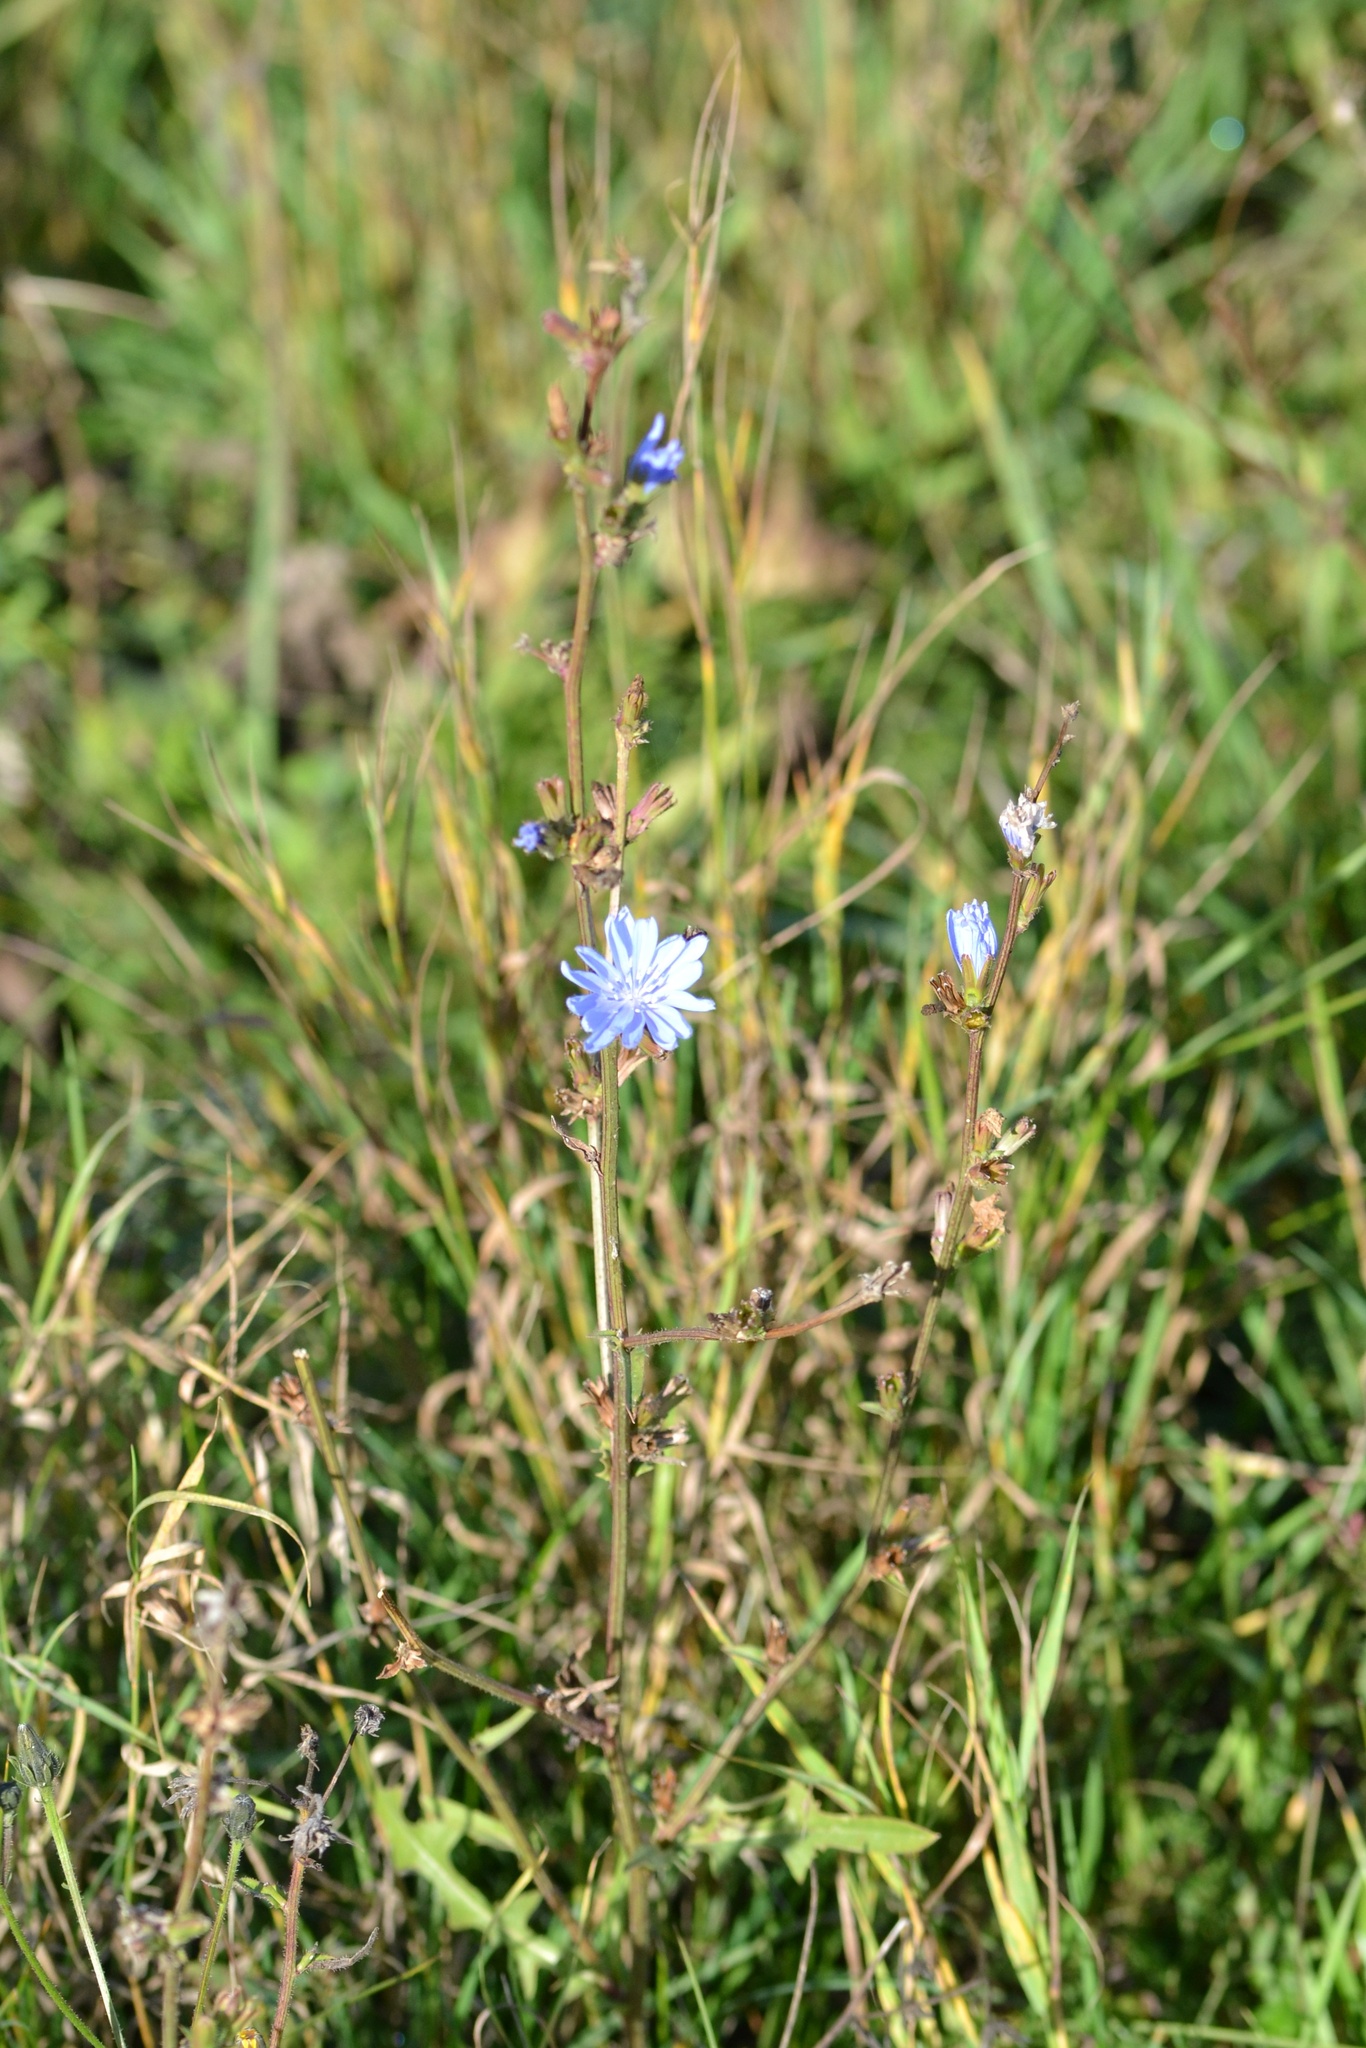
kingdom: Plantae
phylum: Tracheophyta
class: Magnoliopsida
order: Asterales
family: Asteraceae
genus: Cichorium
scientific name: Cichorium intybus
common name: Chicory
